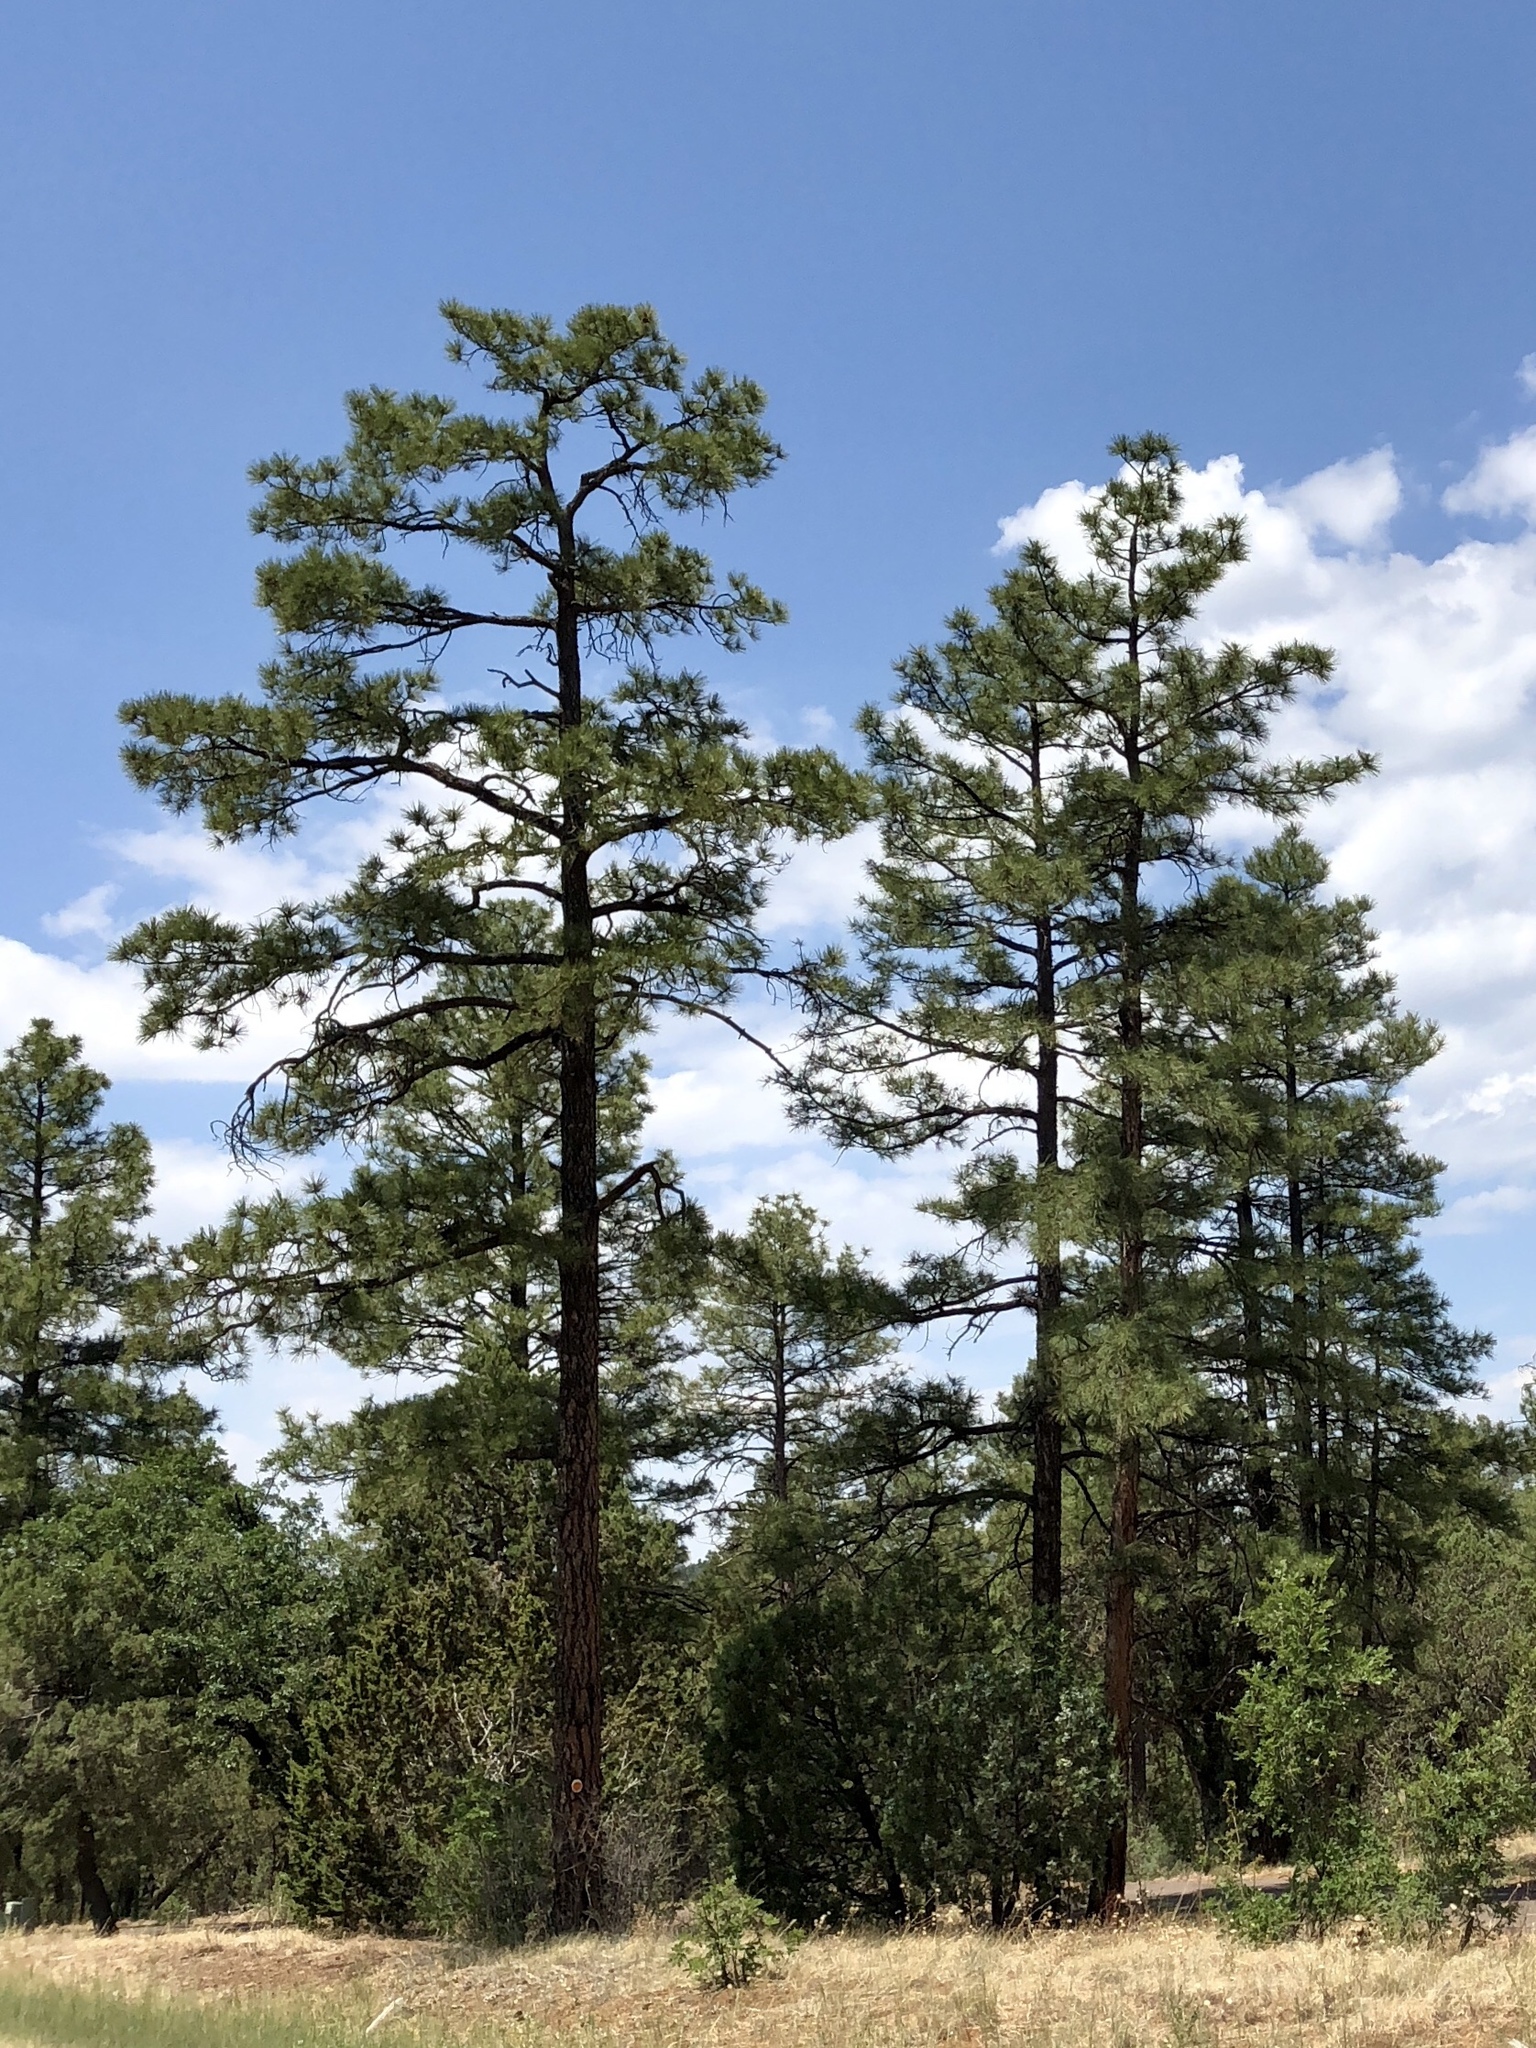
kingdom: Plantae
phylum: Tracheophyta
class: Pinopsida
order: Pinales
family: Pinaceae
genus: Pinus
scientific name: Pinus ponderosa
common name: Western yellow-pine
